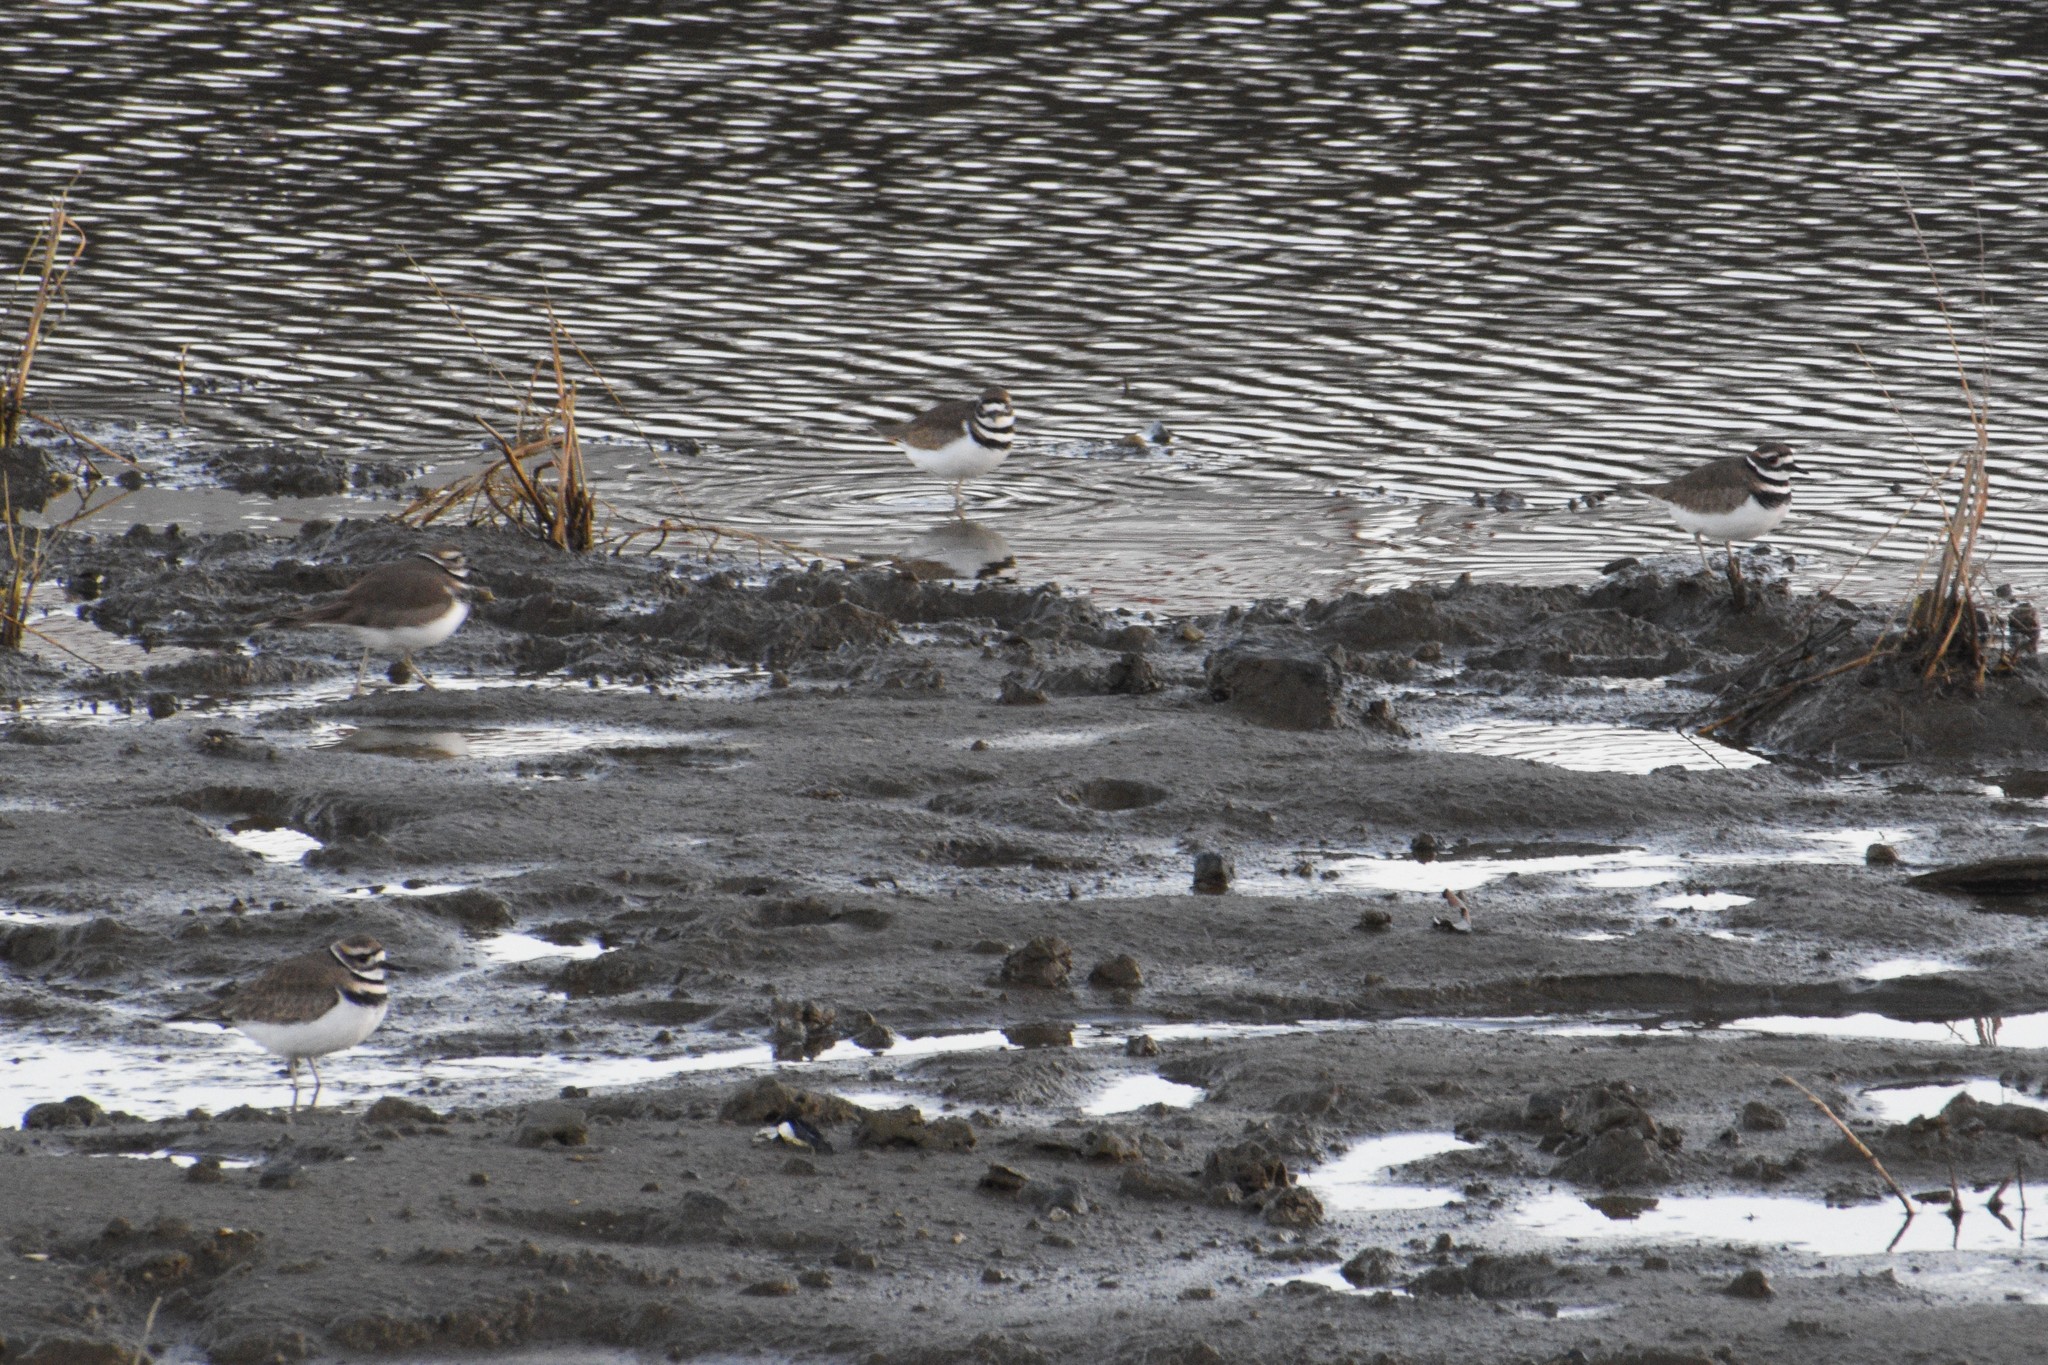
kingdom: Animalia
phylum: Chordata
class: Aves
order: Charadriiformes
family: Charadriidae
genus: Charadrius
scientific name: Charadrius vociferus
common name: Killdeer
